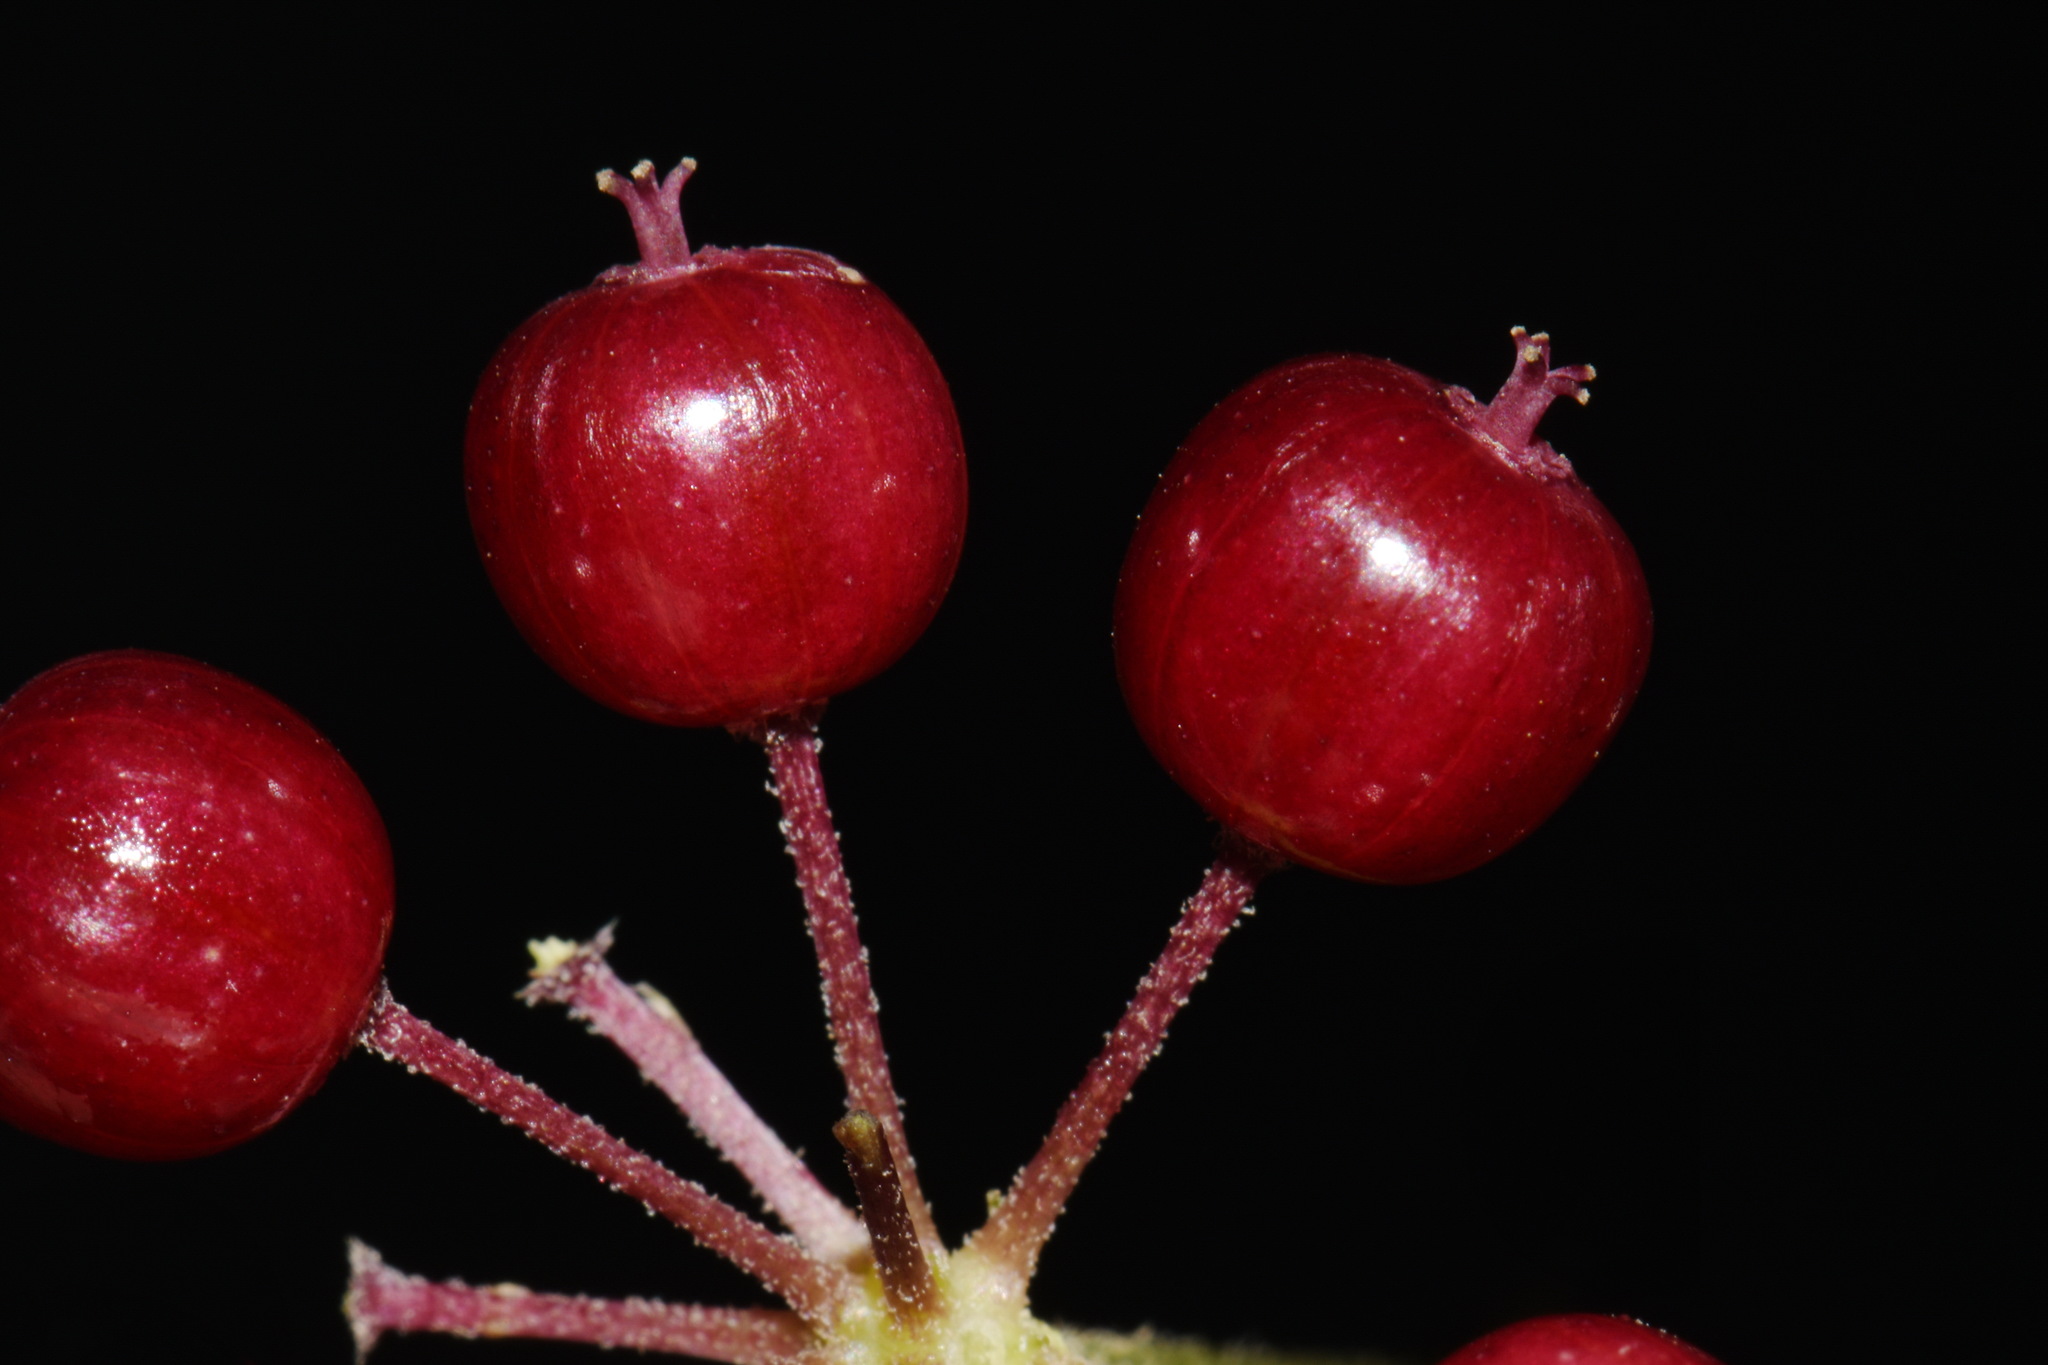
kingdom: Plantae
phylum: Tracheophyta
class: Magnoliopsida
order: Apiales
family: Araliaceae
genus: Aralia
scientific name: Aralia racemosa
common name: American-spikenard
